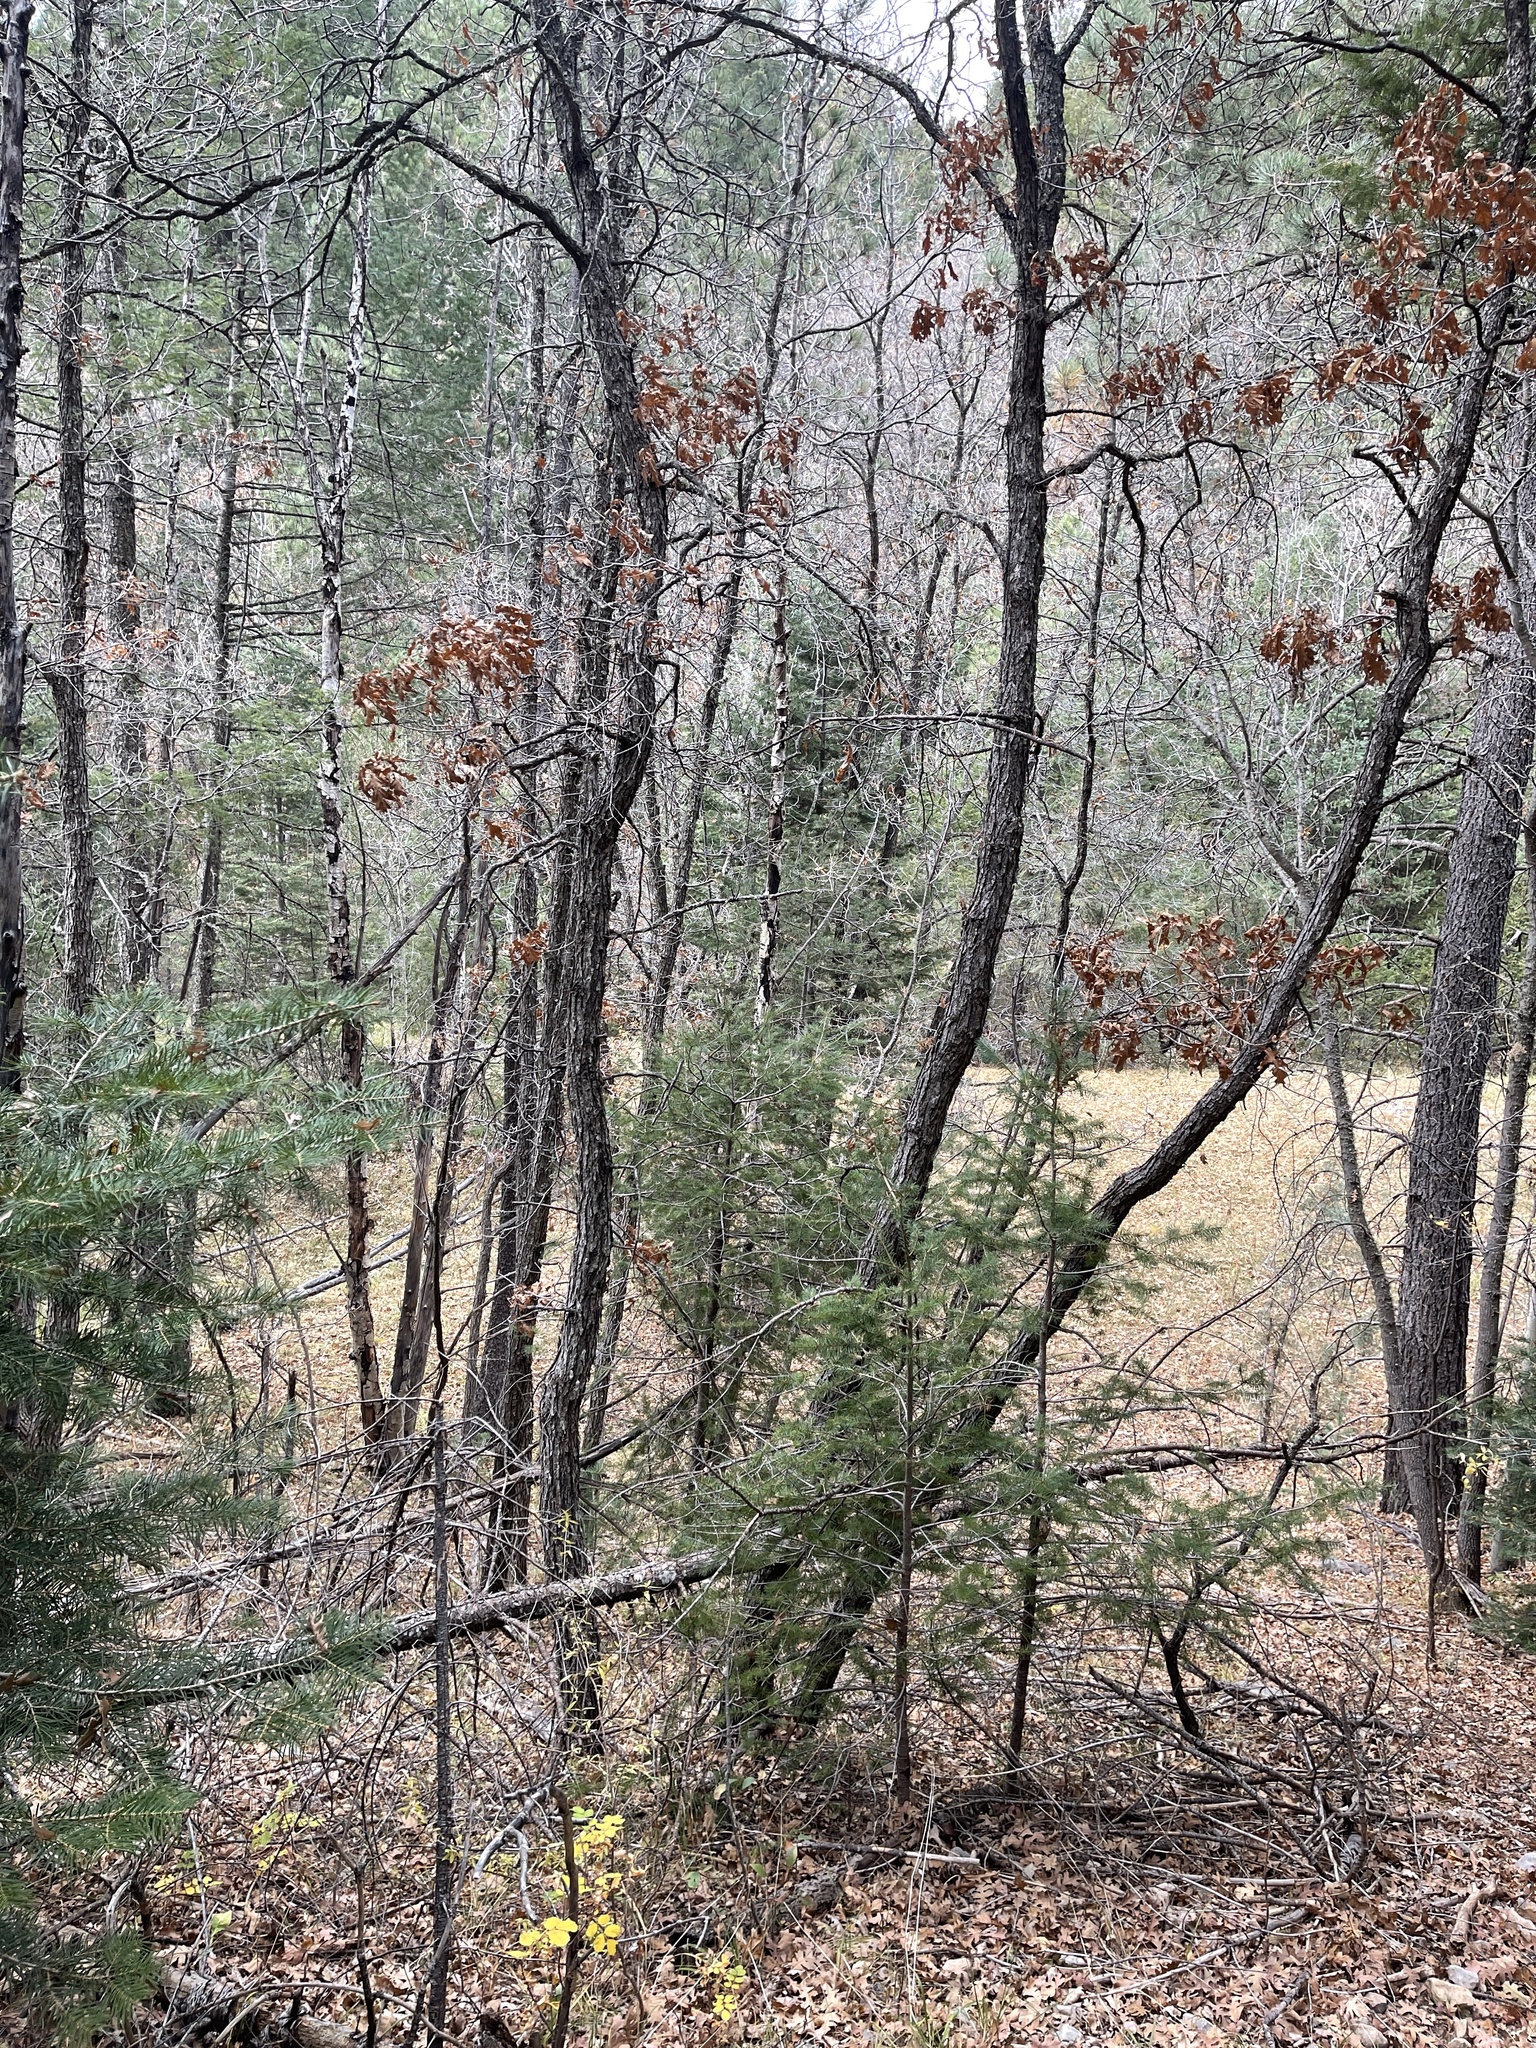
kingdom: Plantae
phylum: Tracheophyta
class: Magnoliopsida
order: Fagales
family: Fagaceae
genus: Quercus
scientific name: Quercus gambelii
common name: Gambel oak
